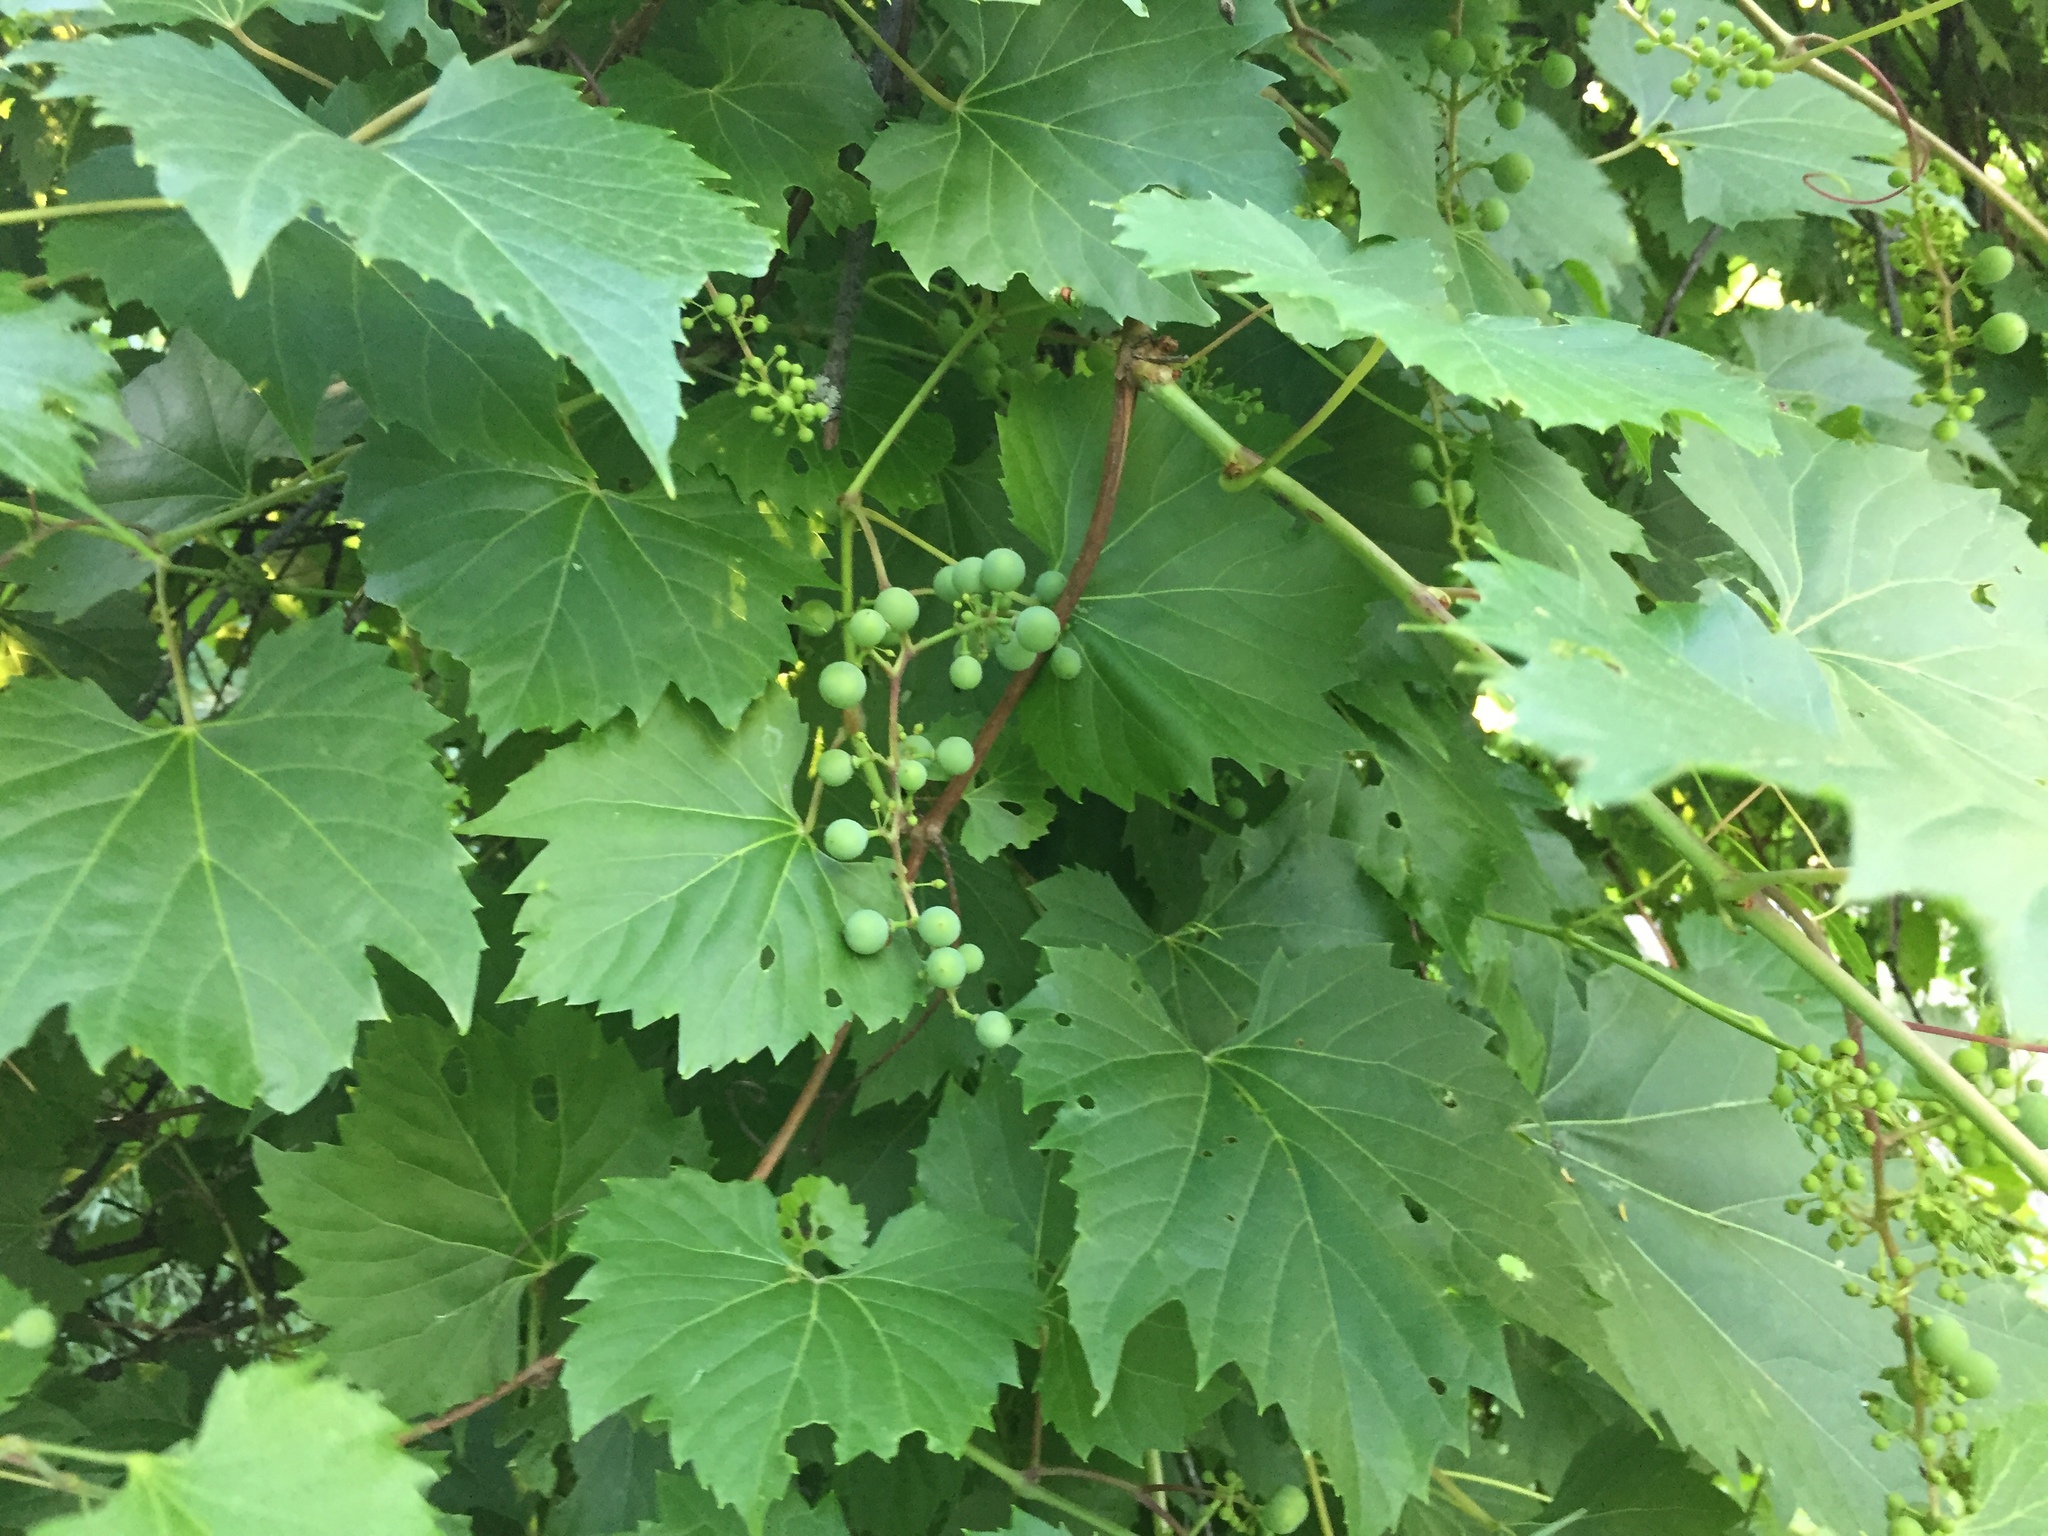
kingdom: Plantae
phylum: Tracheophyta
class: Magnoliopsida
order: Vitales
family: Vitaceae
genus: Vitis
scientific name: Vitis riparia
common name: Frost grape
